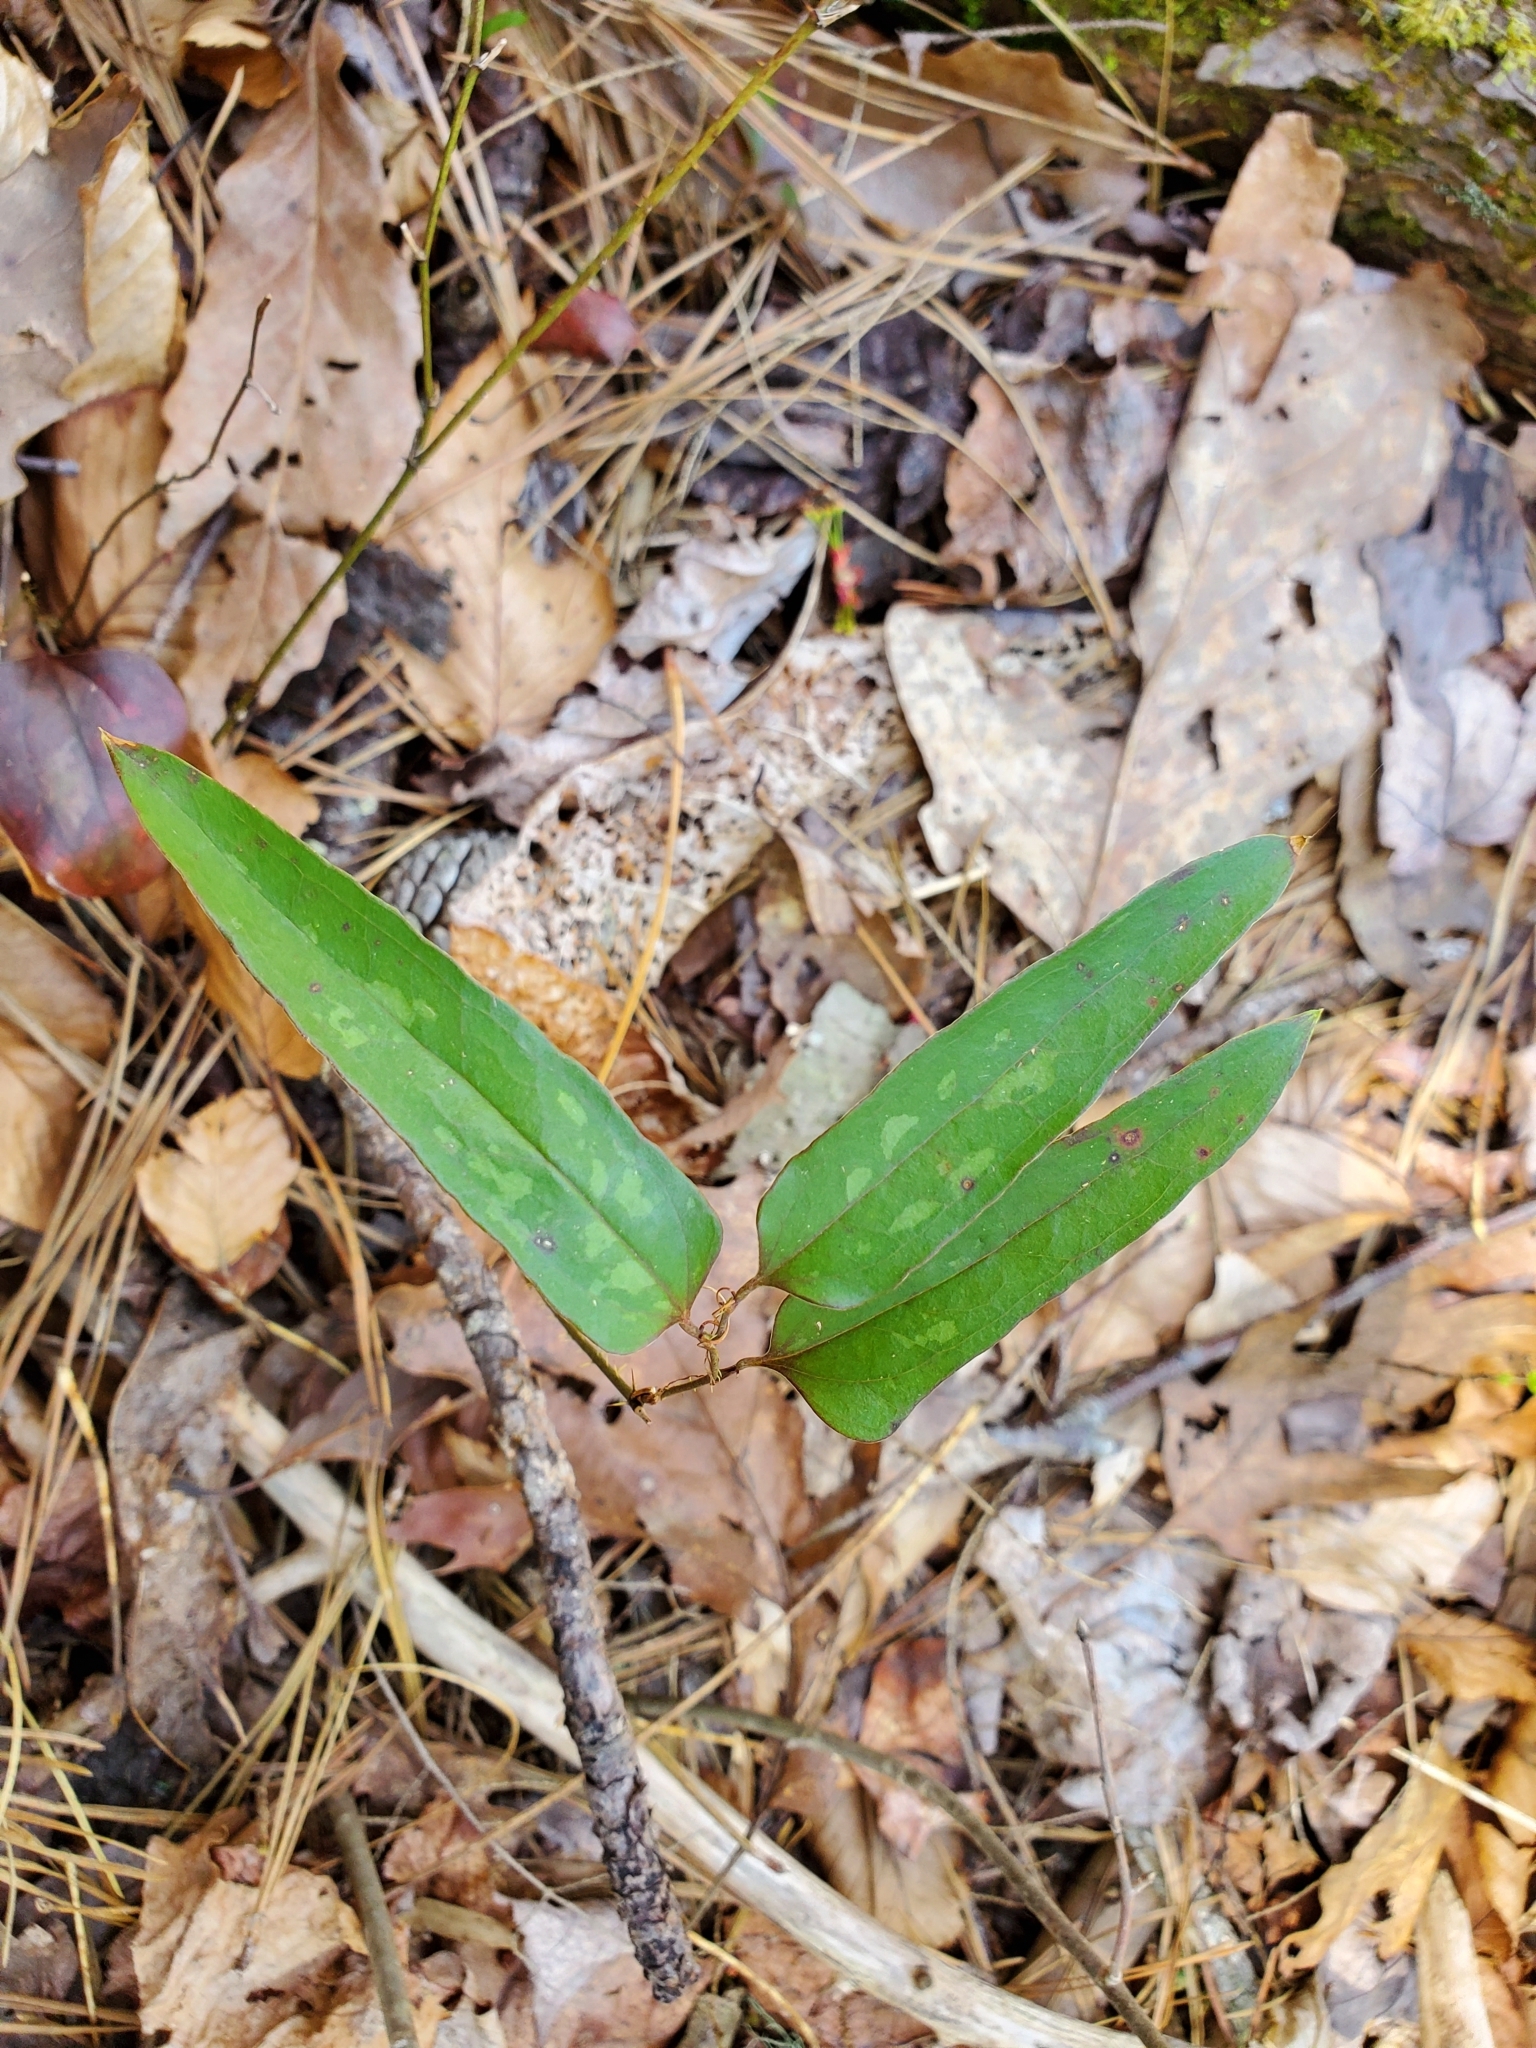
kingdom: Plantae
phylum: Tracheophyta
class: Liliopsida
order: Liliales
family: Smilacaceae
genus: Smilax
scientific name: Smilax glauca
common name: Cat greenbrier
